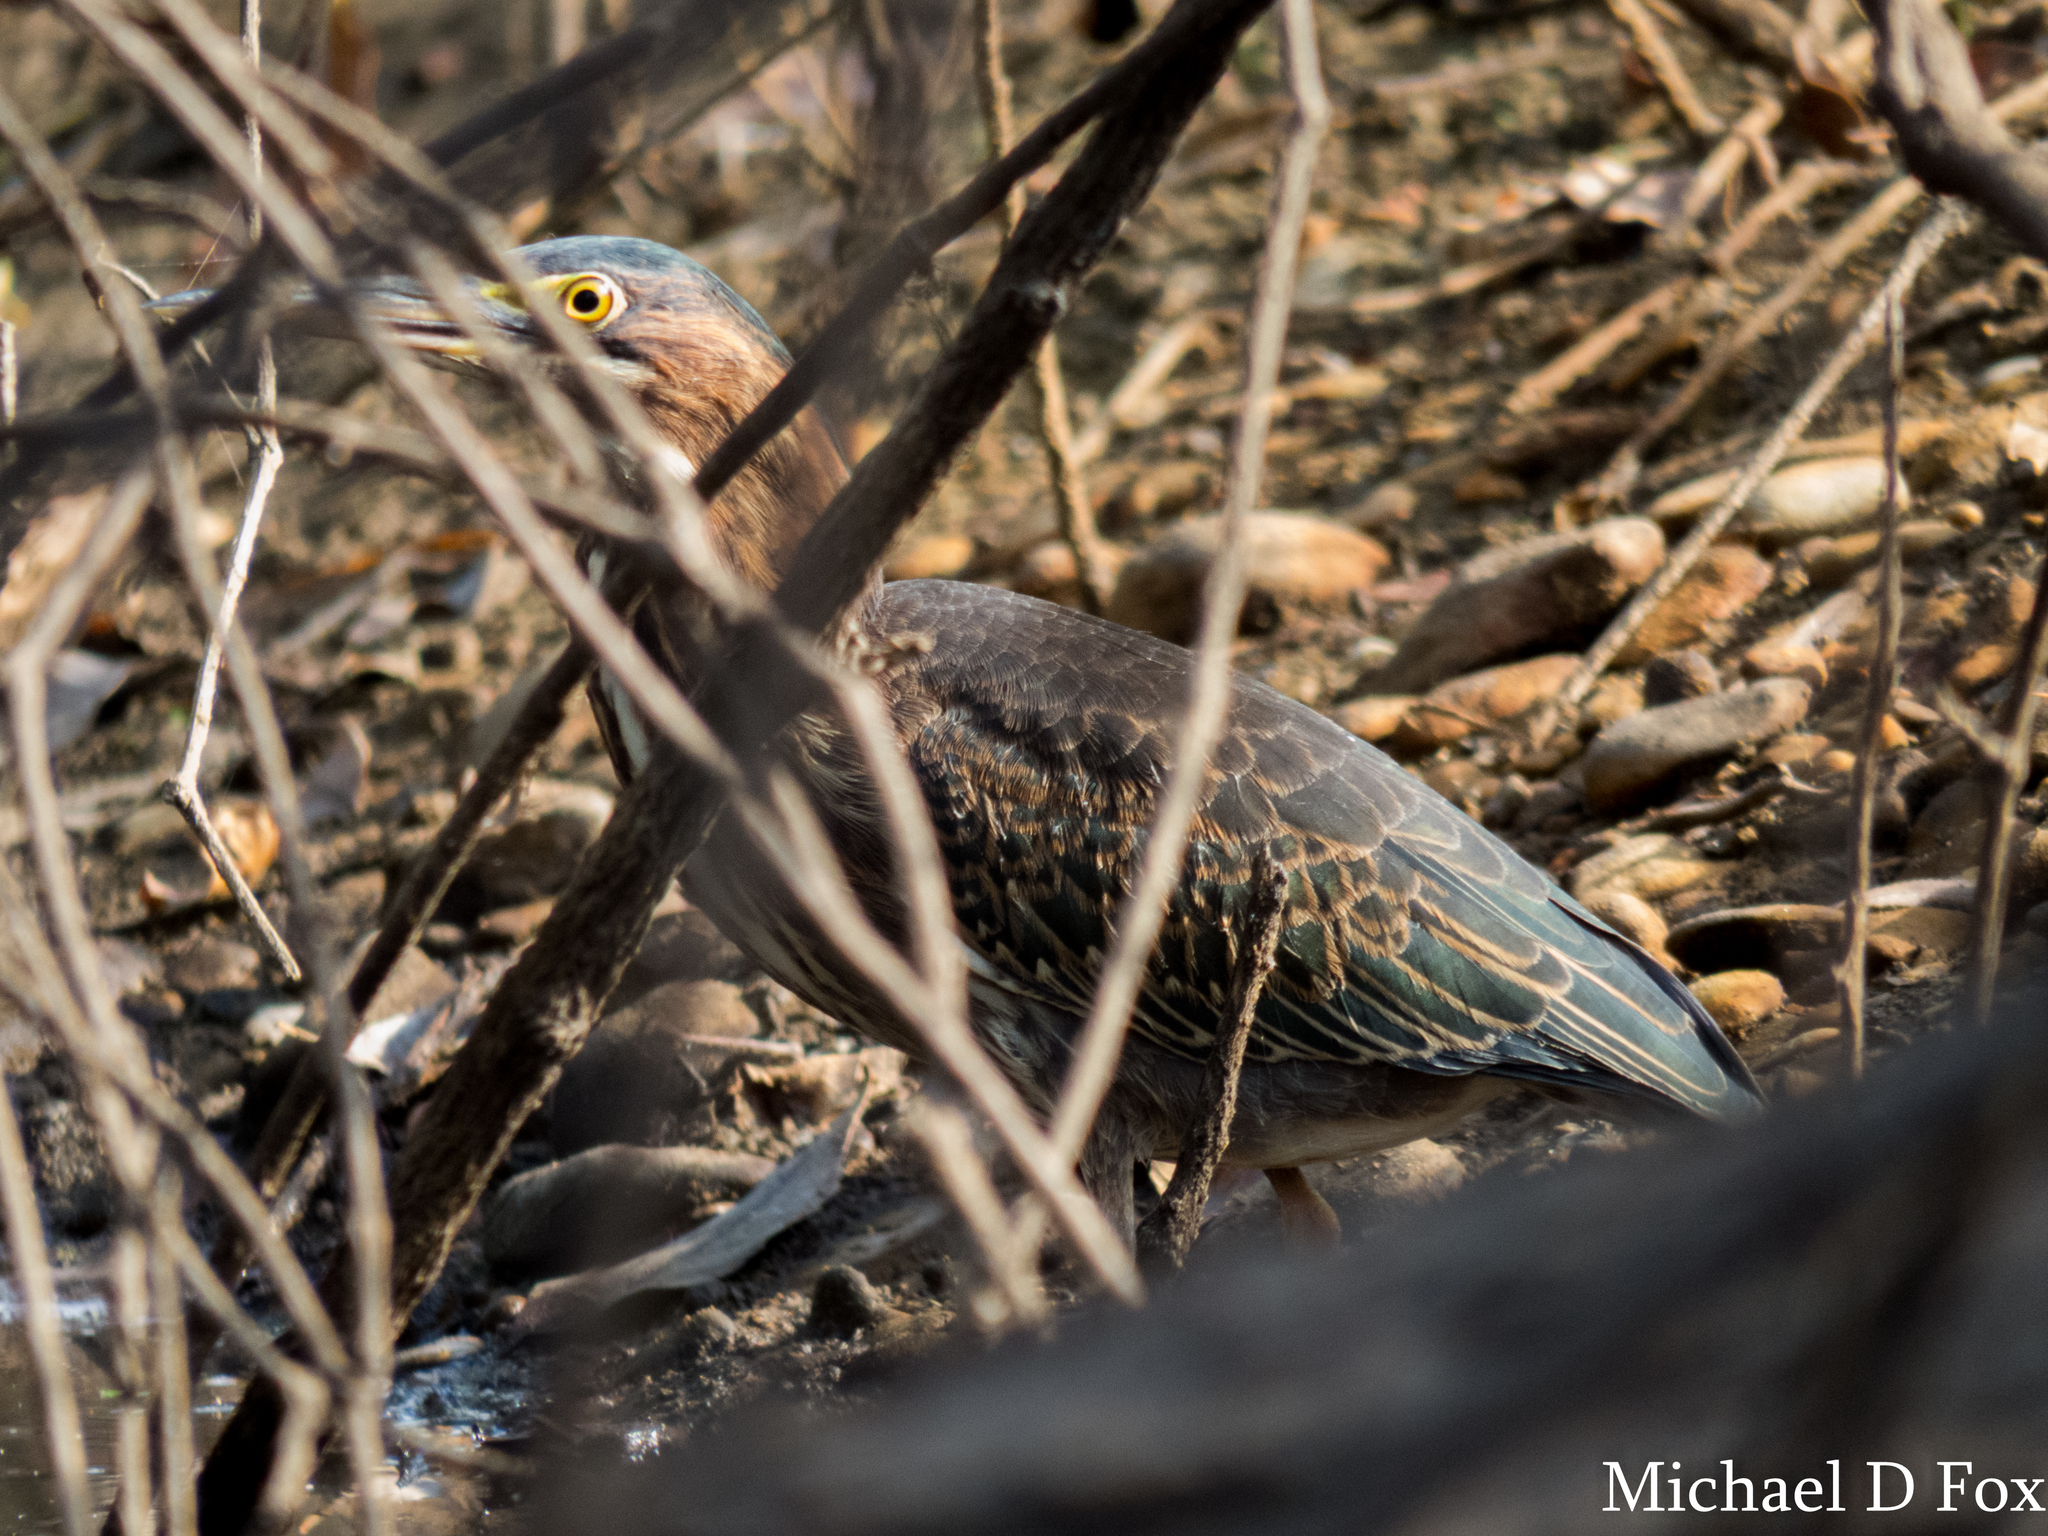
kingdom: Animalia
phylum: Chordata
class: Aves
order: Pelecaniformes
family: Ardeidae
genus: Butorides
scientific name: Butorides virescens
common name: Green heron
